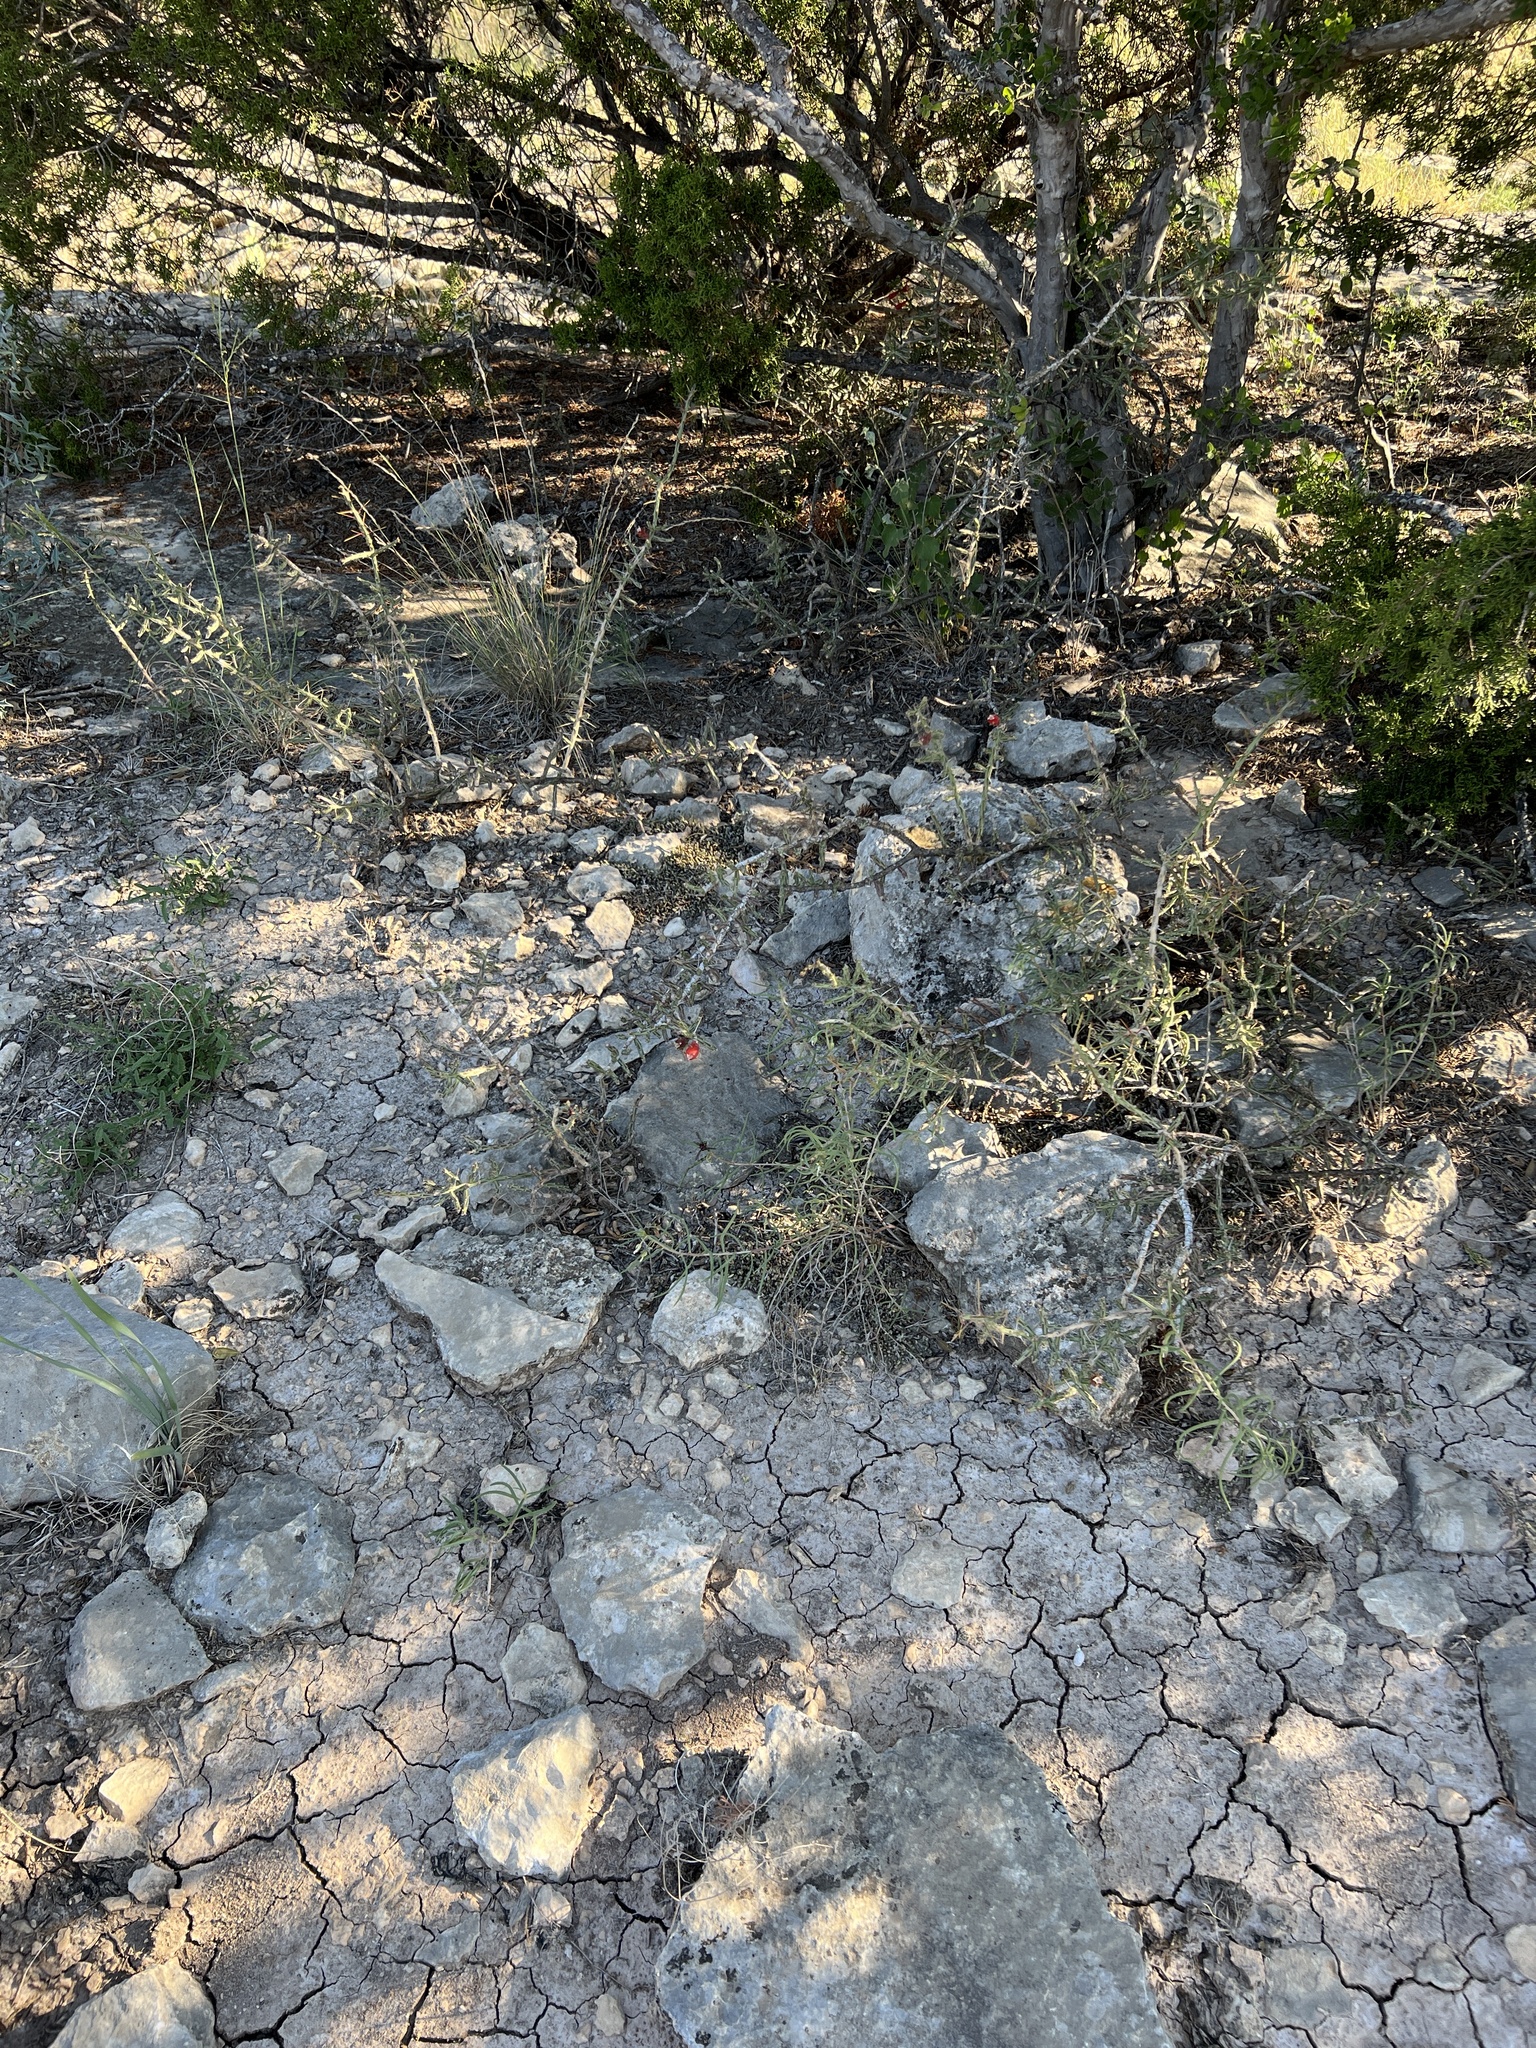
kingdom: Plantae
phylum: Tracheophyta
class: Magnoliopsida
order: Caryophyllales
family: Cactaceae
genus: Cylindropuntia
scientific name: Cylindropuntia leptocaulis
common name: Christmas cactus
